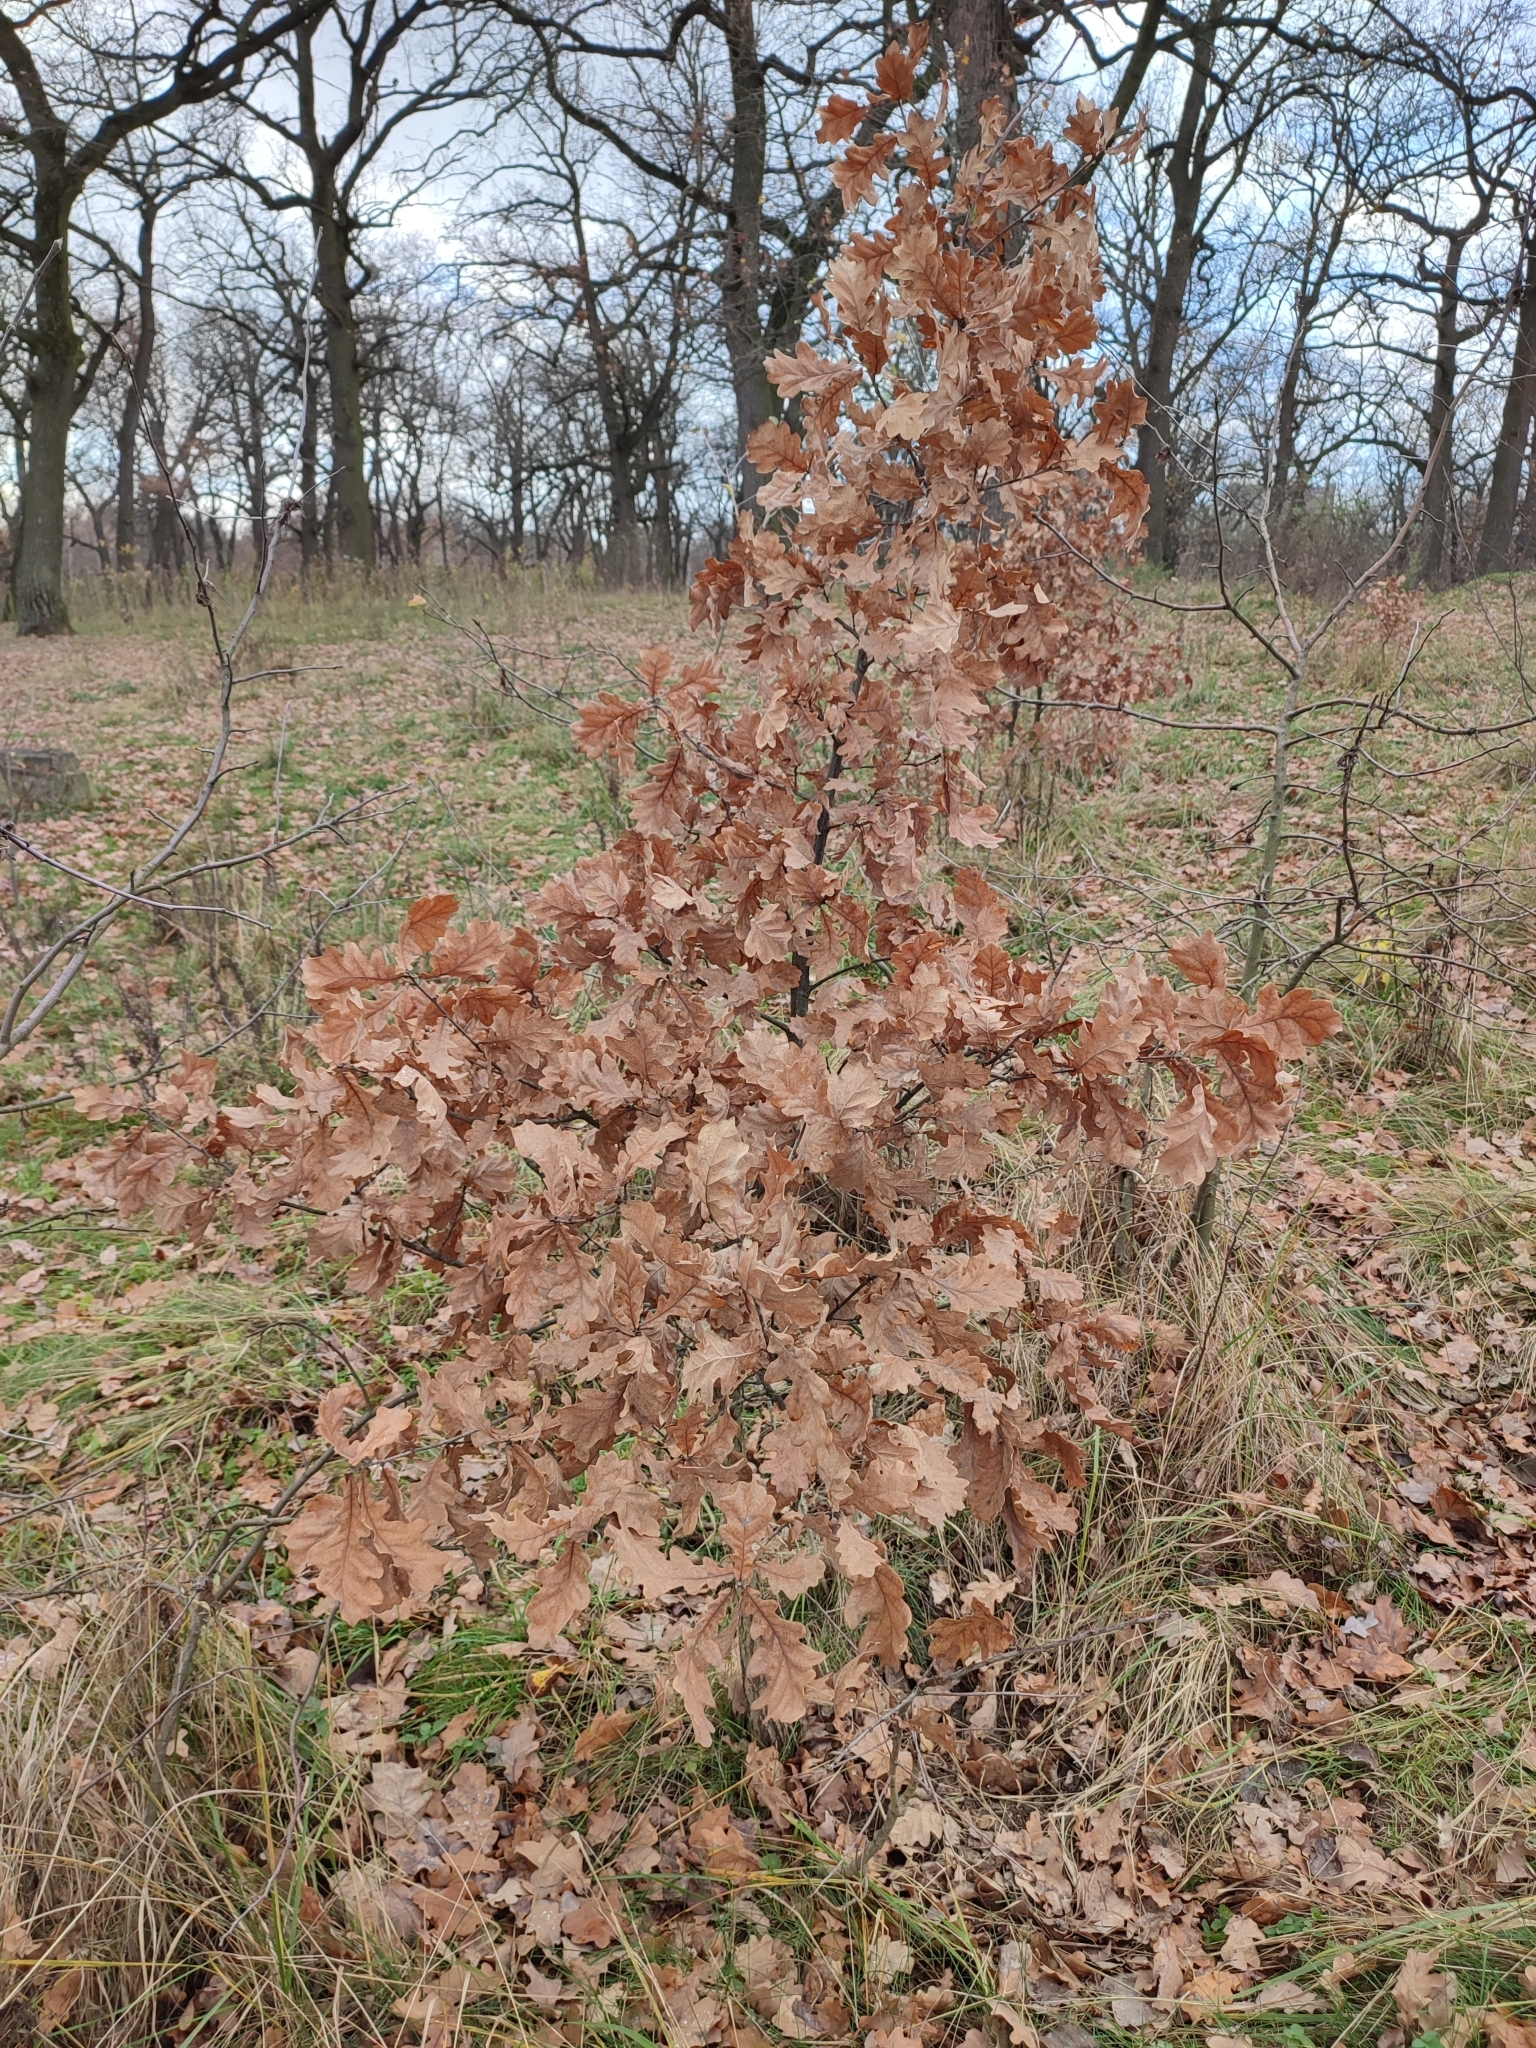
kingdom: Plantae
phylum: Tracheophyta
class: Magnoliopsida
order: Fagales
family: Fagaceae
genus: Quercus
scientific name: Quercus robur
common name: Pedunculate oak
